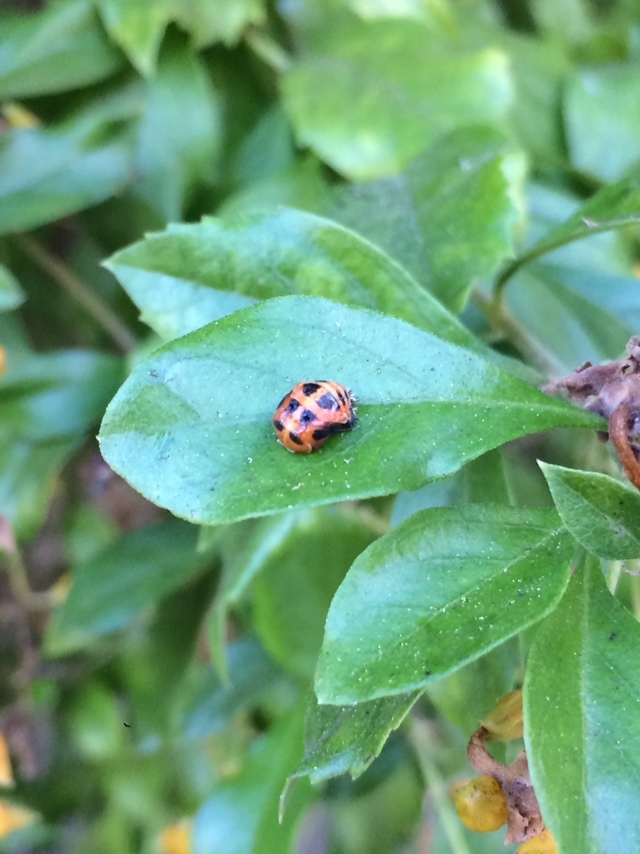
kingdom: Animalia
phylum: Arthropoda
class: Insecta
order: Coleoptera
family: Coccinellidae
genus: Harmonia
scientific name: Harmonia axyridis
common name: Harlequin ladybird
